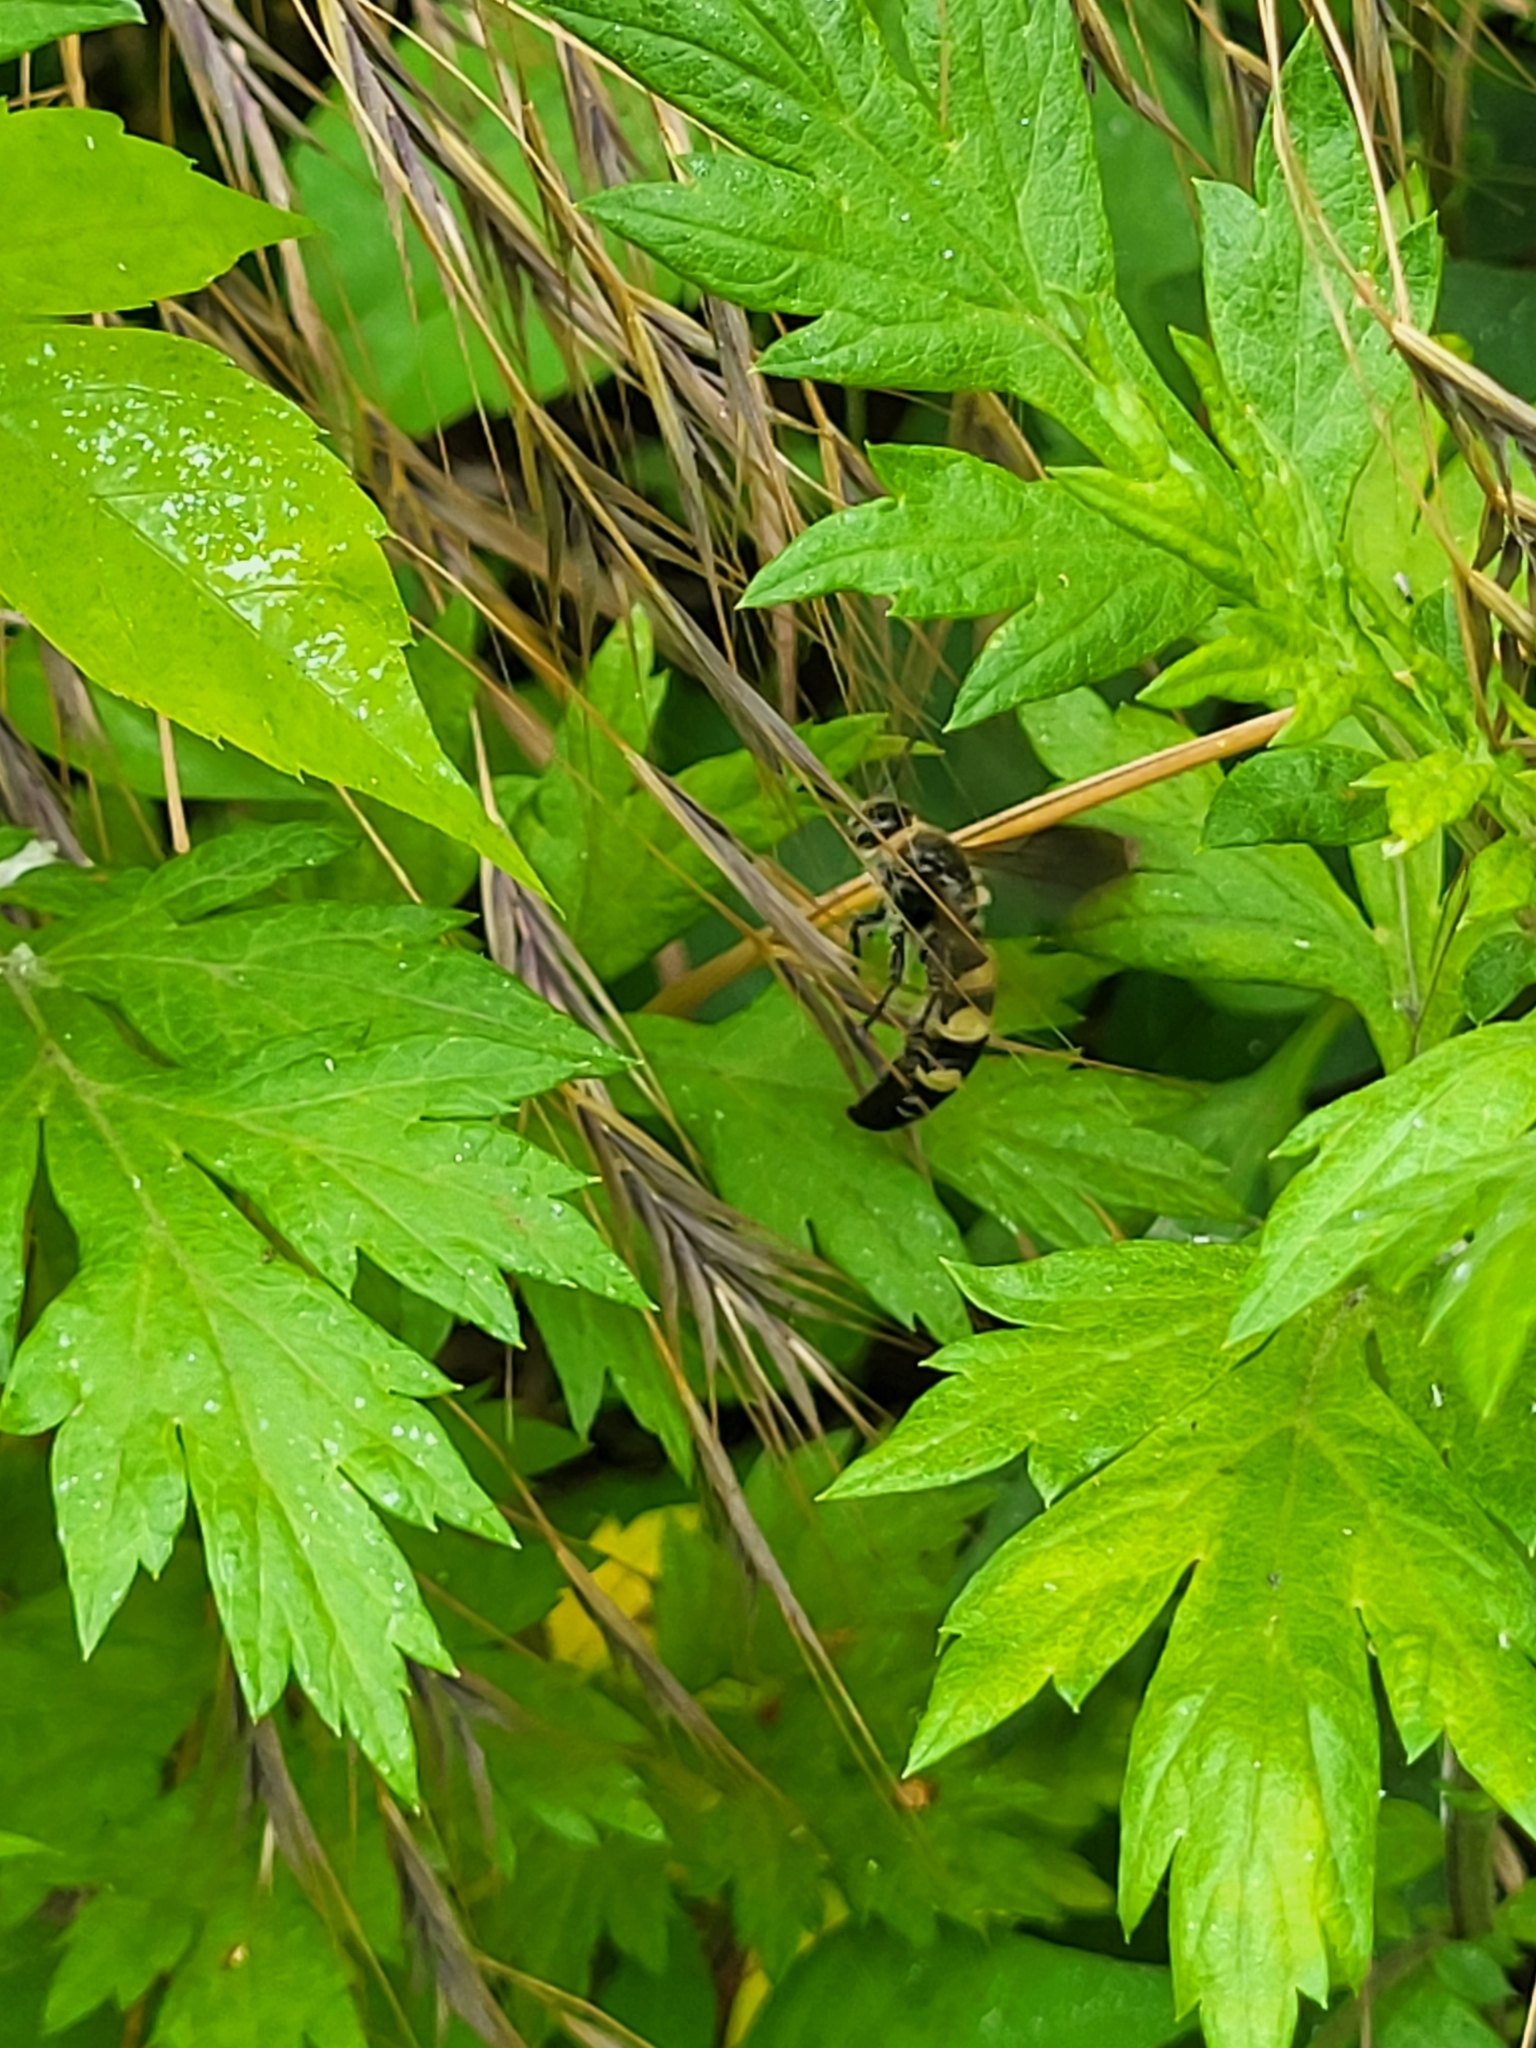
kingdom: Animalia
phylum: Arthropoda
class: Insecta
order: Hymenoptera
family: Scoliidae
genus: Dielis
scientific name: Dielis
